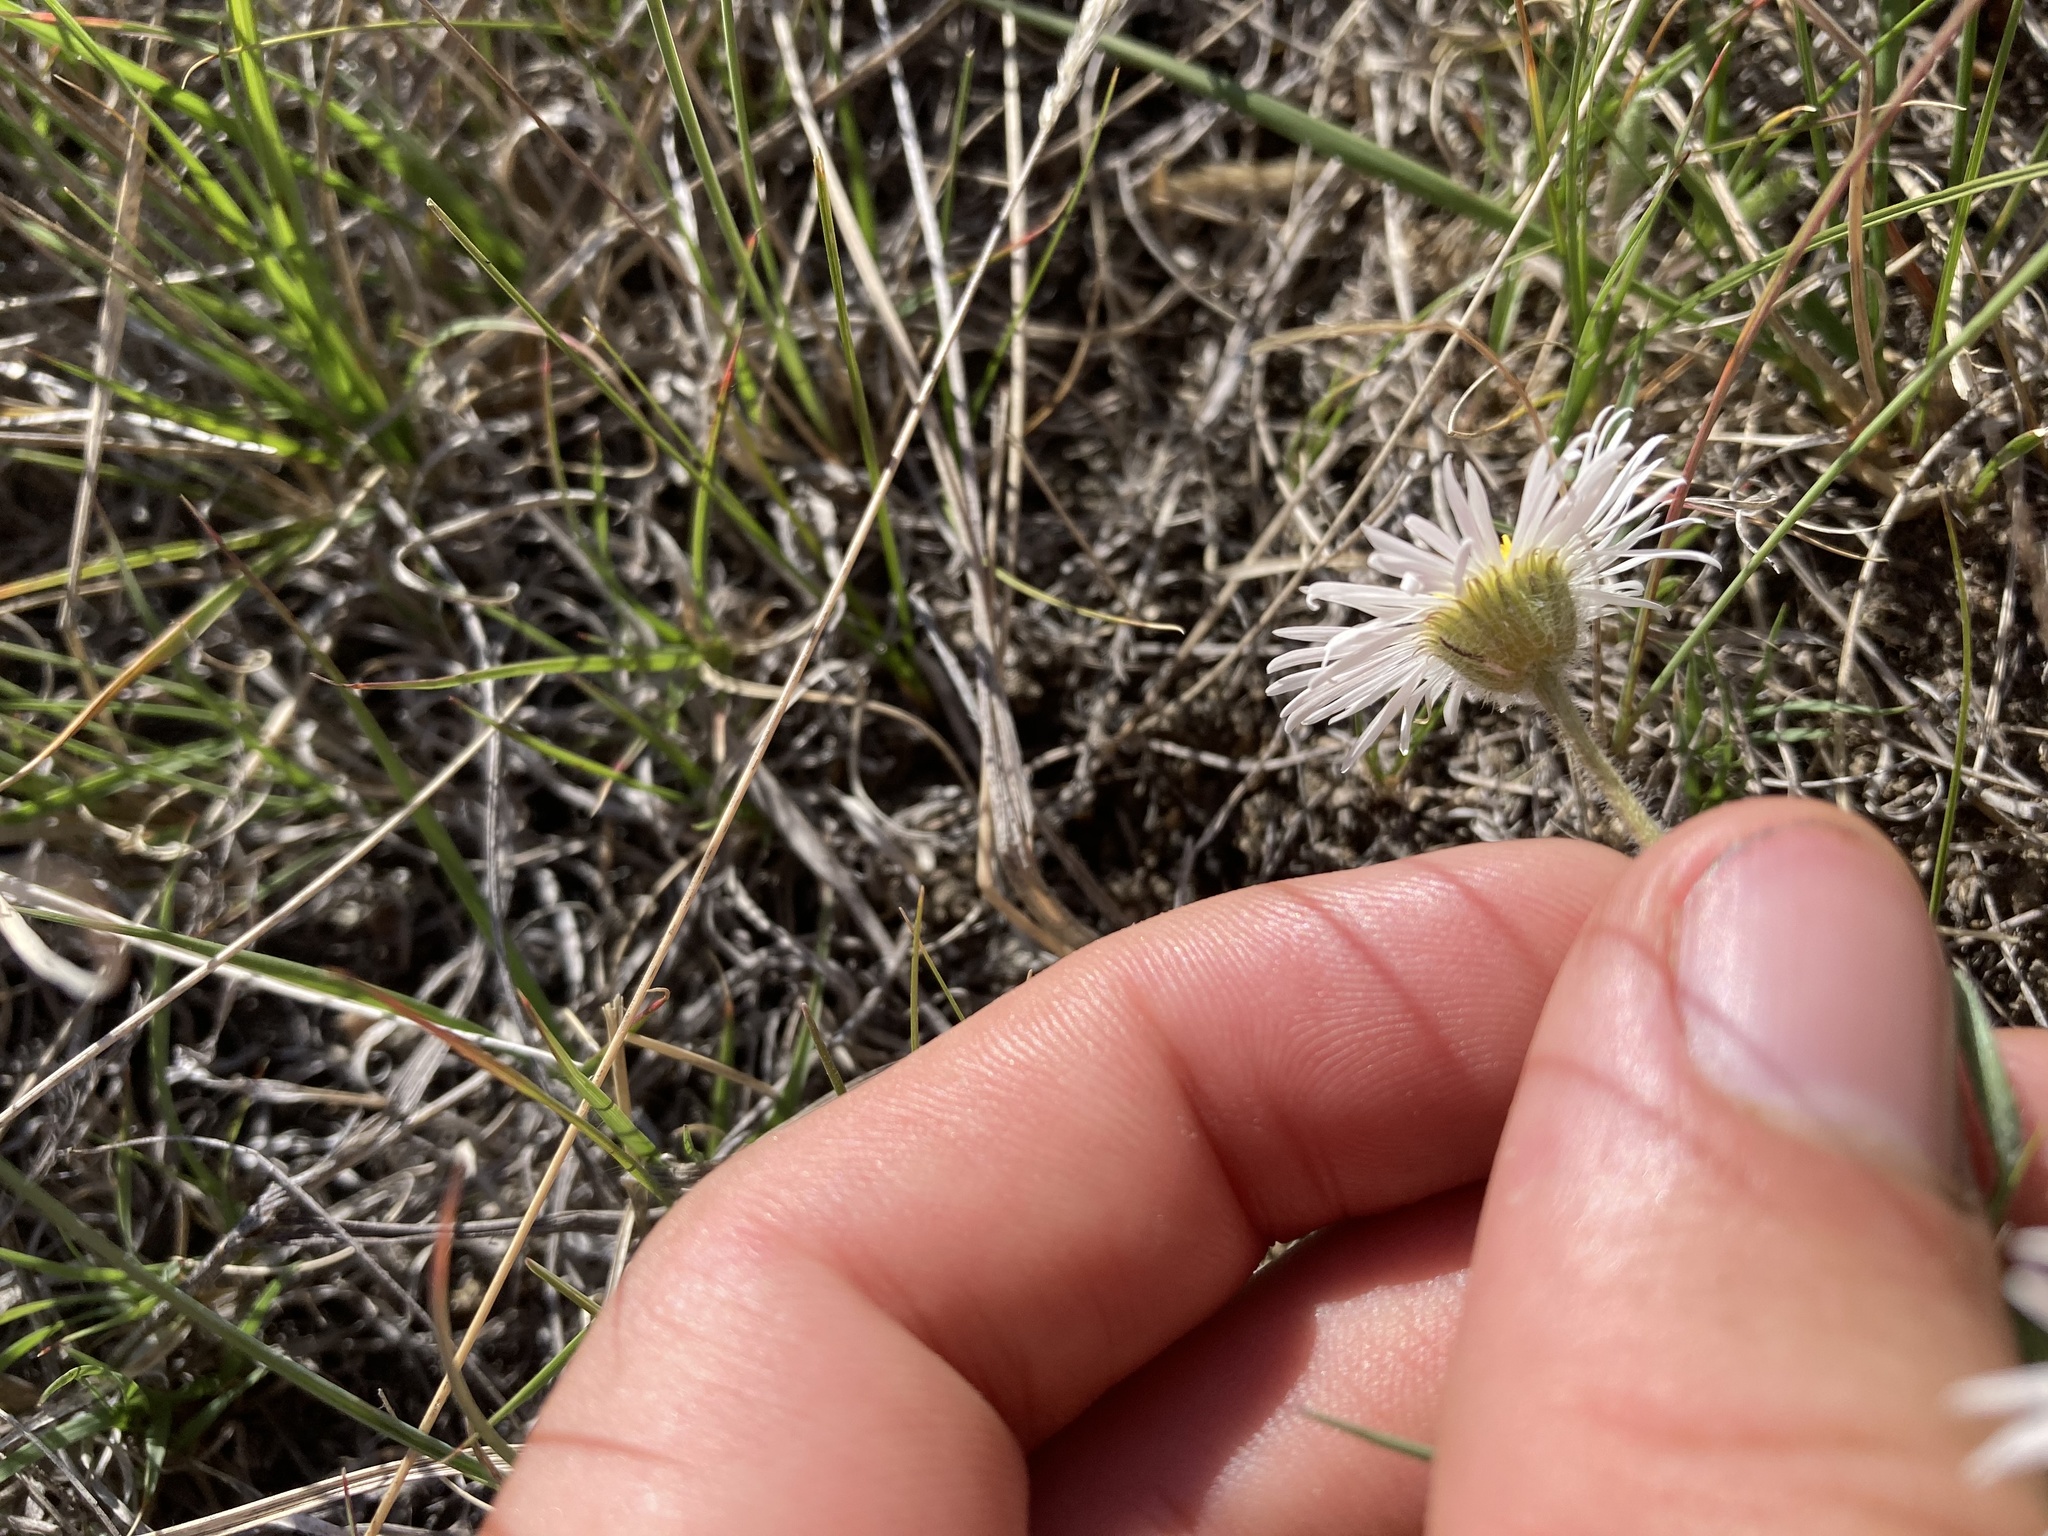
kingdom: Plantae
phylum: Tracheophyta
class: Magnoliopsida
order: Asterales
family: Asteraceae
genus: Erigeron
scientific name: Erigeron pumilus
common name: Shaggy fleabane
